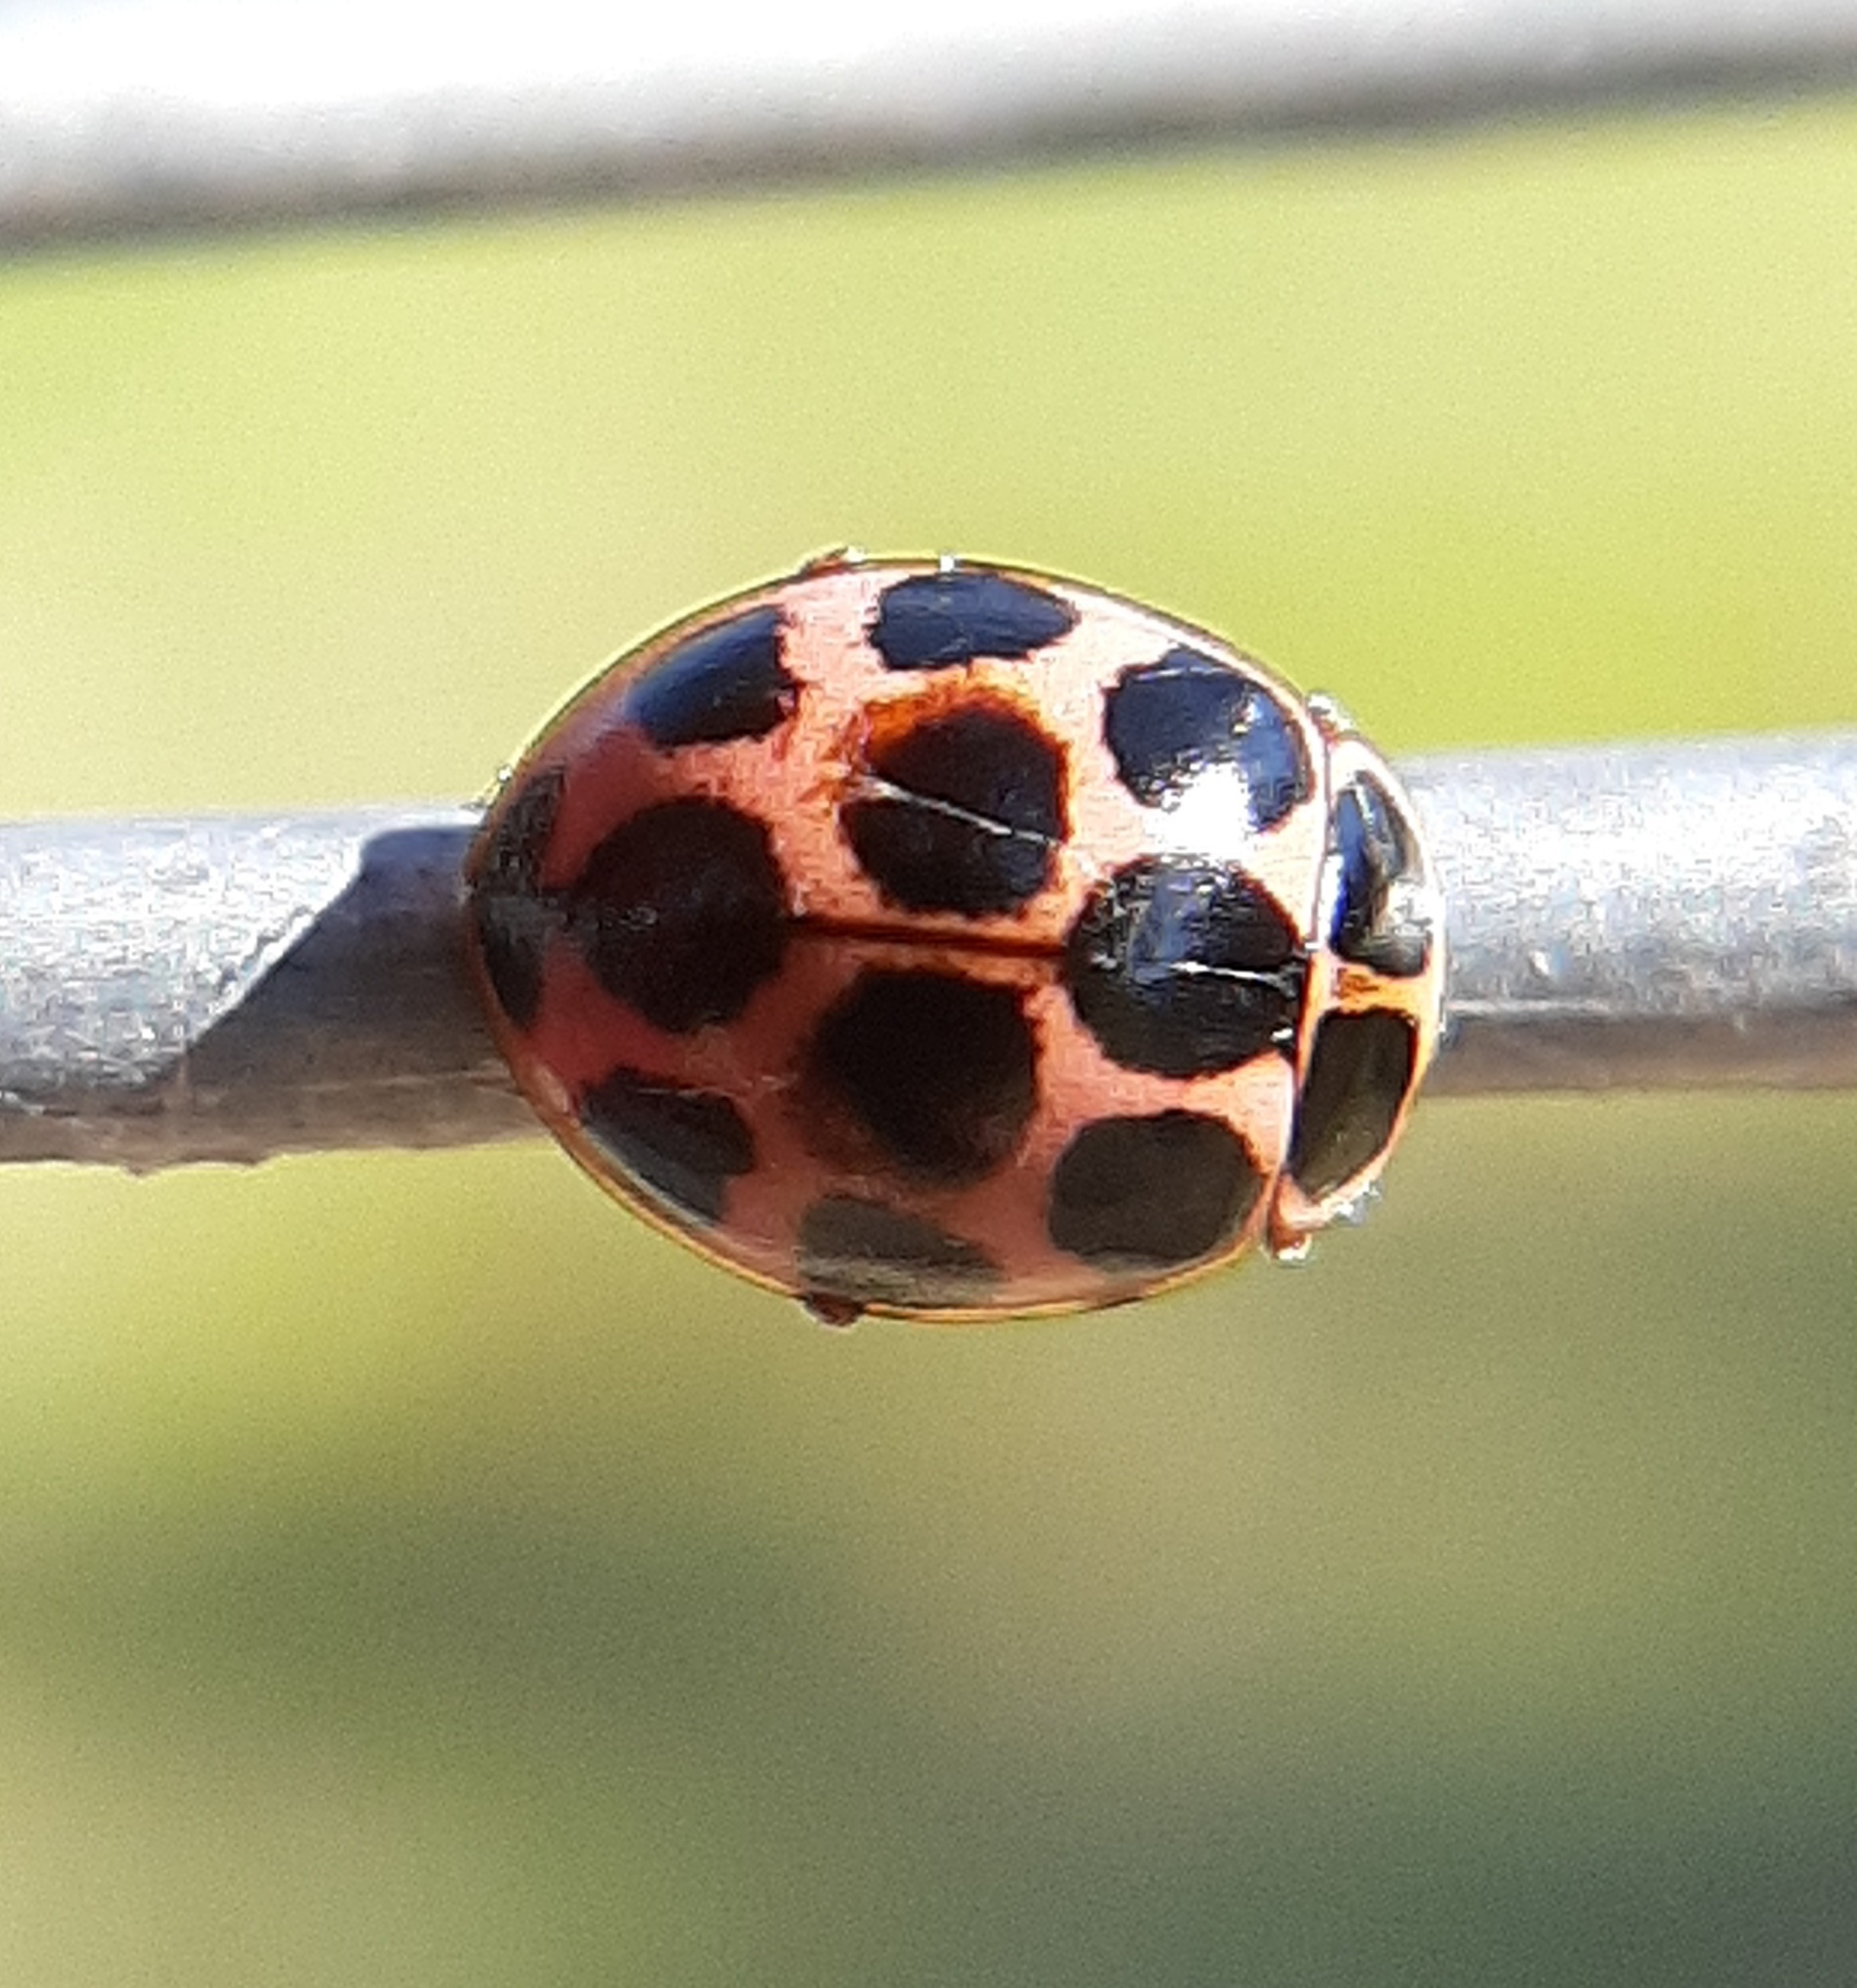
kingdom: Animalia
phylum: Arthropoda
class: Insecta
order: Coleoptera
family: Coccinellidae
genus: Calvia
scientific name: Calvia quatuordecimguttata
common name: Cream-spot ladybird
